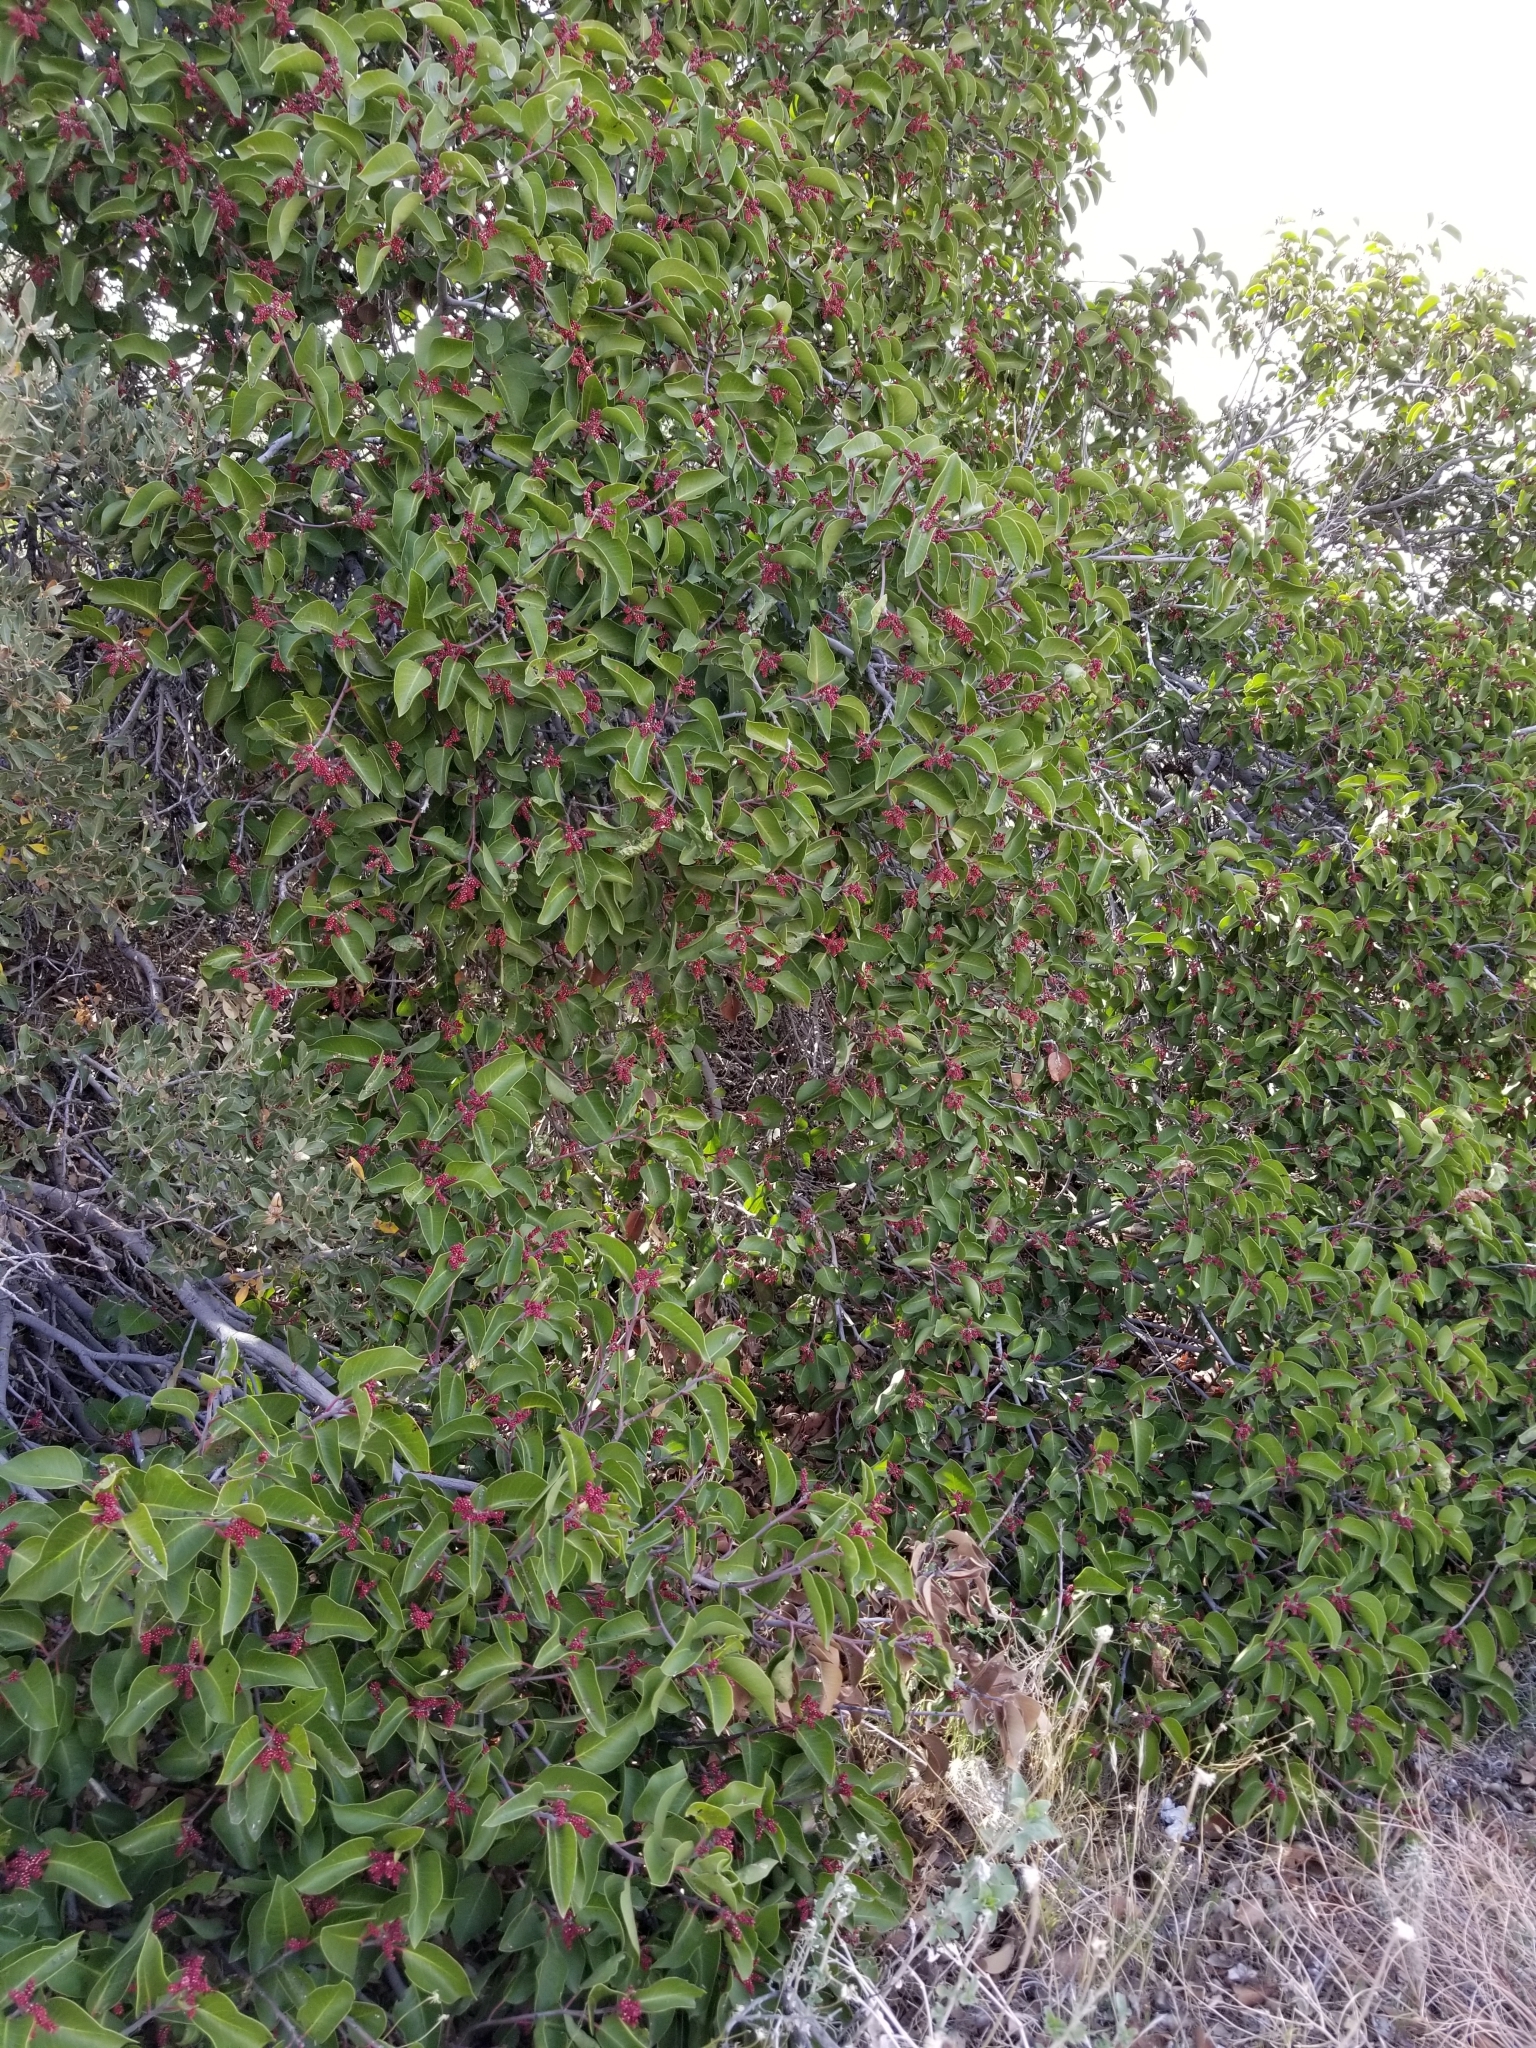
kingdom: Plantae
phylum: Tracheophyta
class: Magnoliopsida
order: Sapindales
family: Anacardiaceae
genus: Rhus
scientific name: Rhus ovata
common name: Sugar sumac
